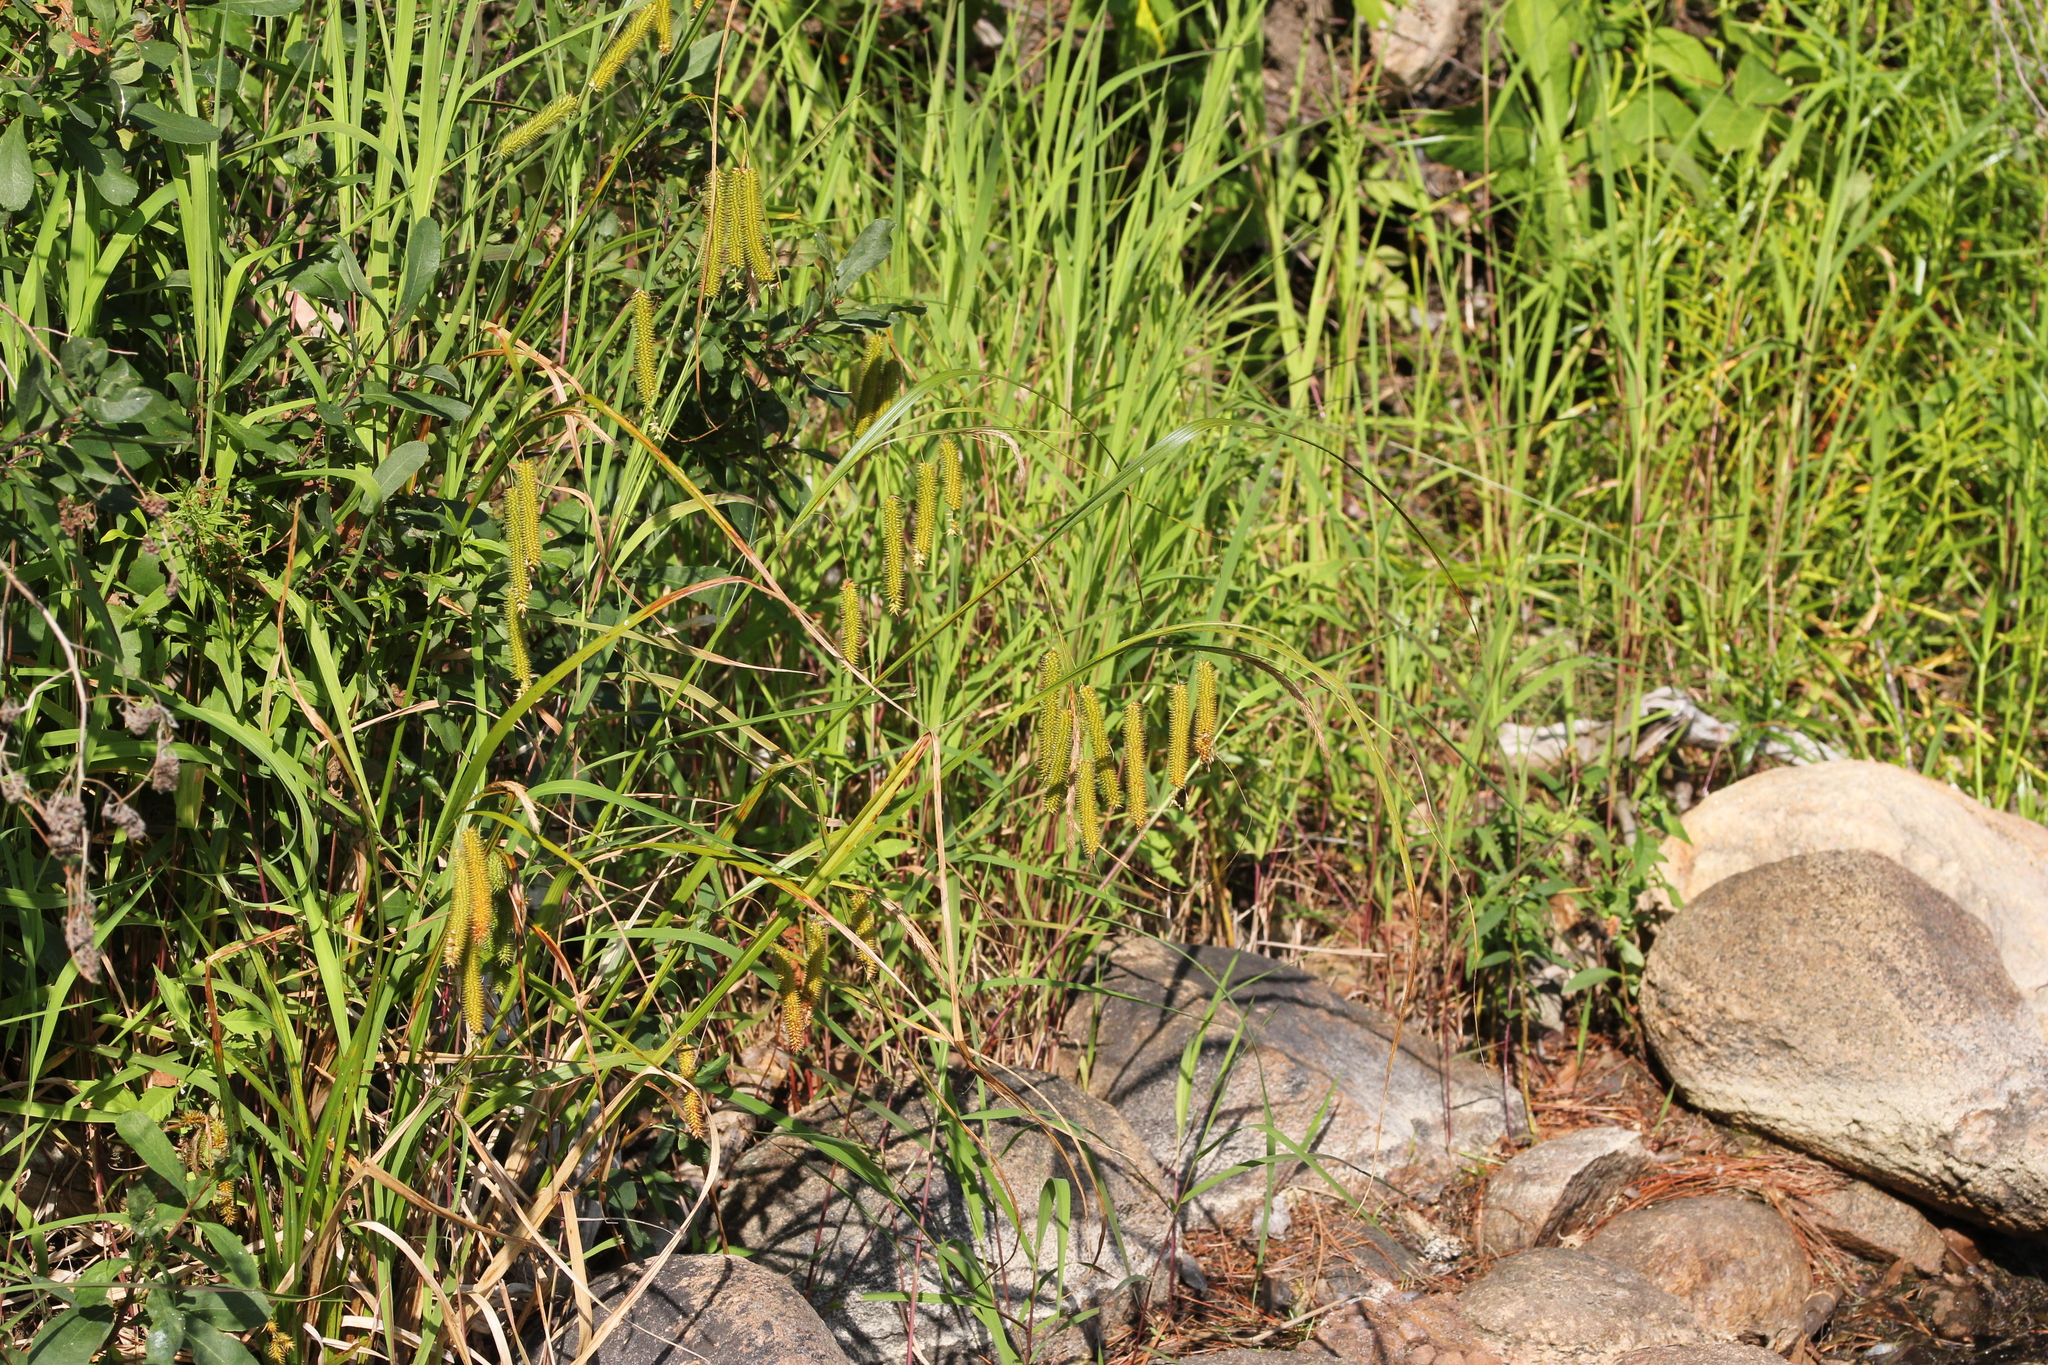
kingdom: Plantae
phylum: Tracheophyta
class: Liliopsida
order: Poales
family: Cyperaceae
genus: Carex
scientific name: Carex pseudocyperus
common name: Cyperus sedge
